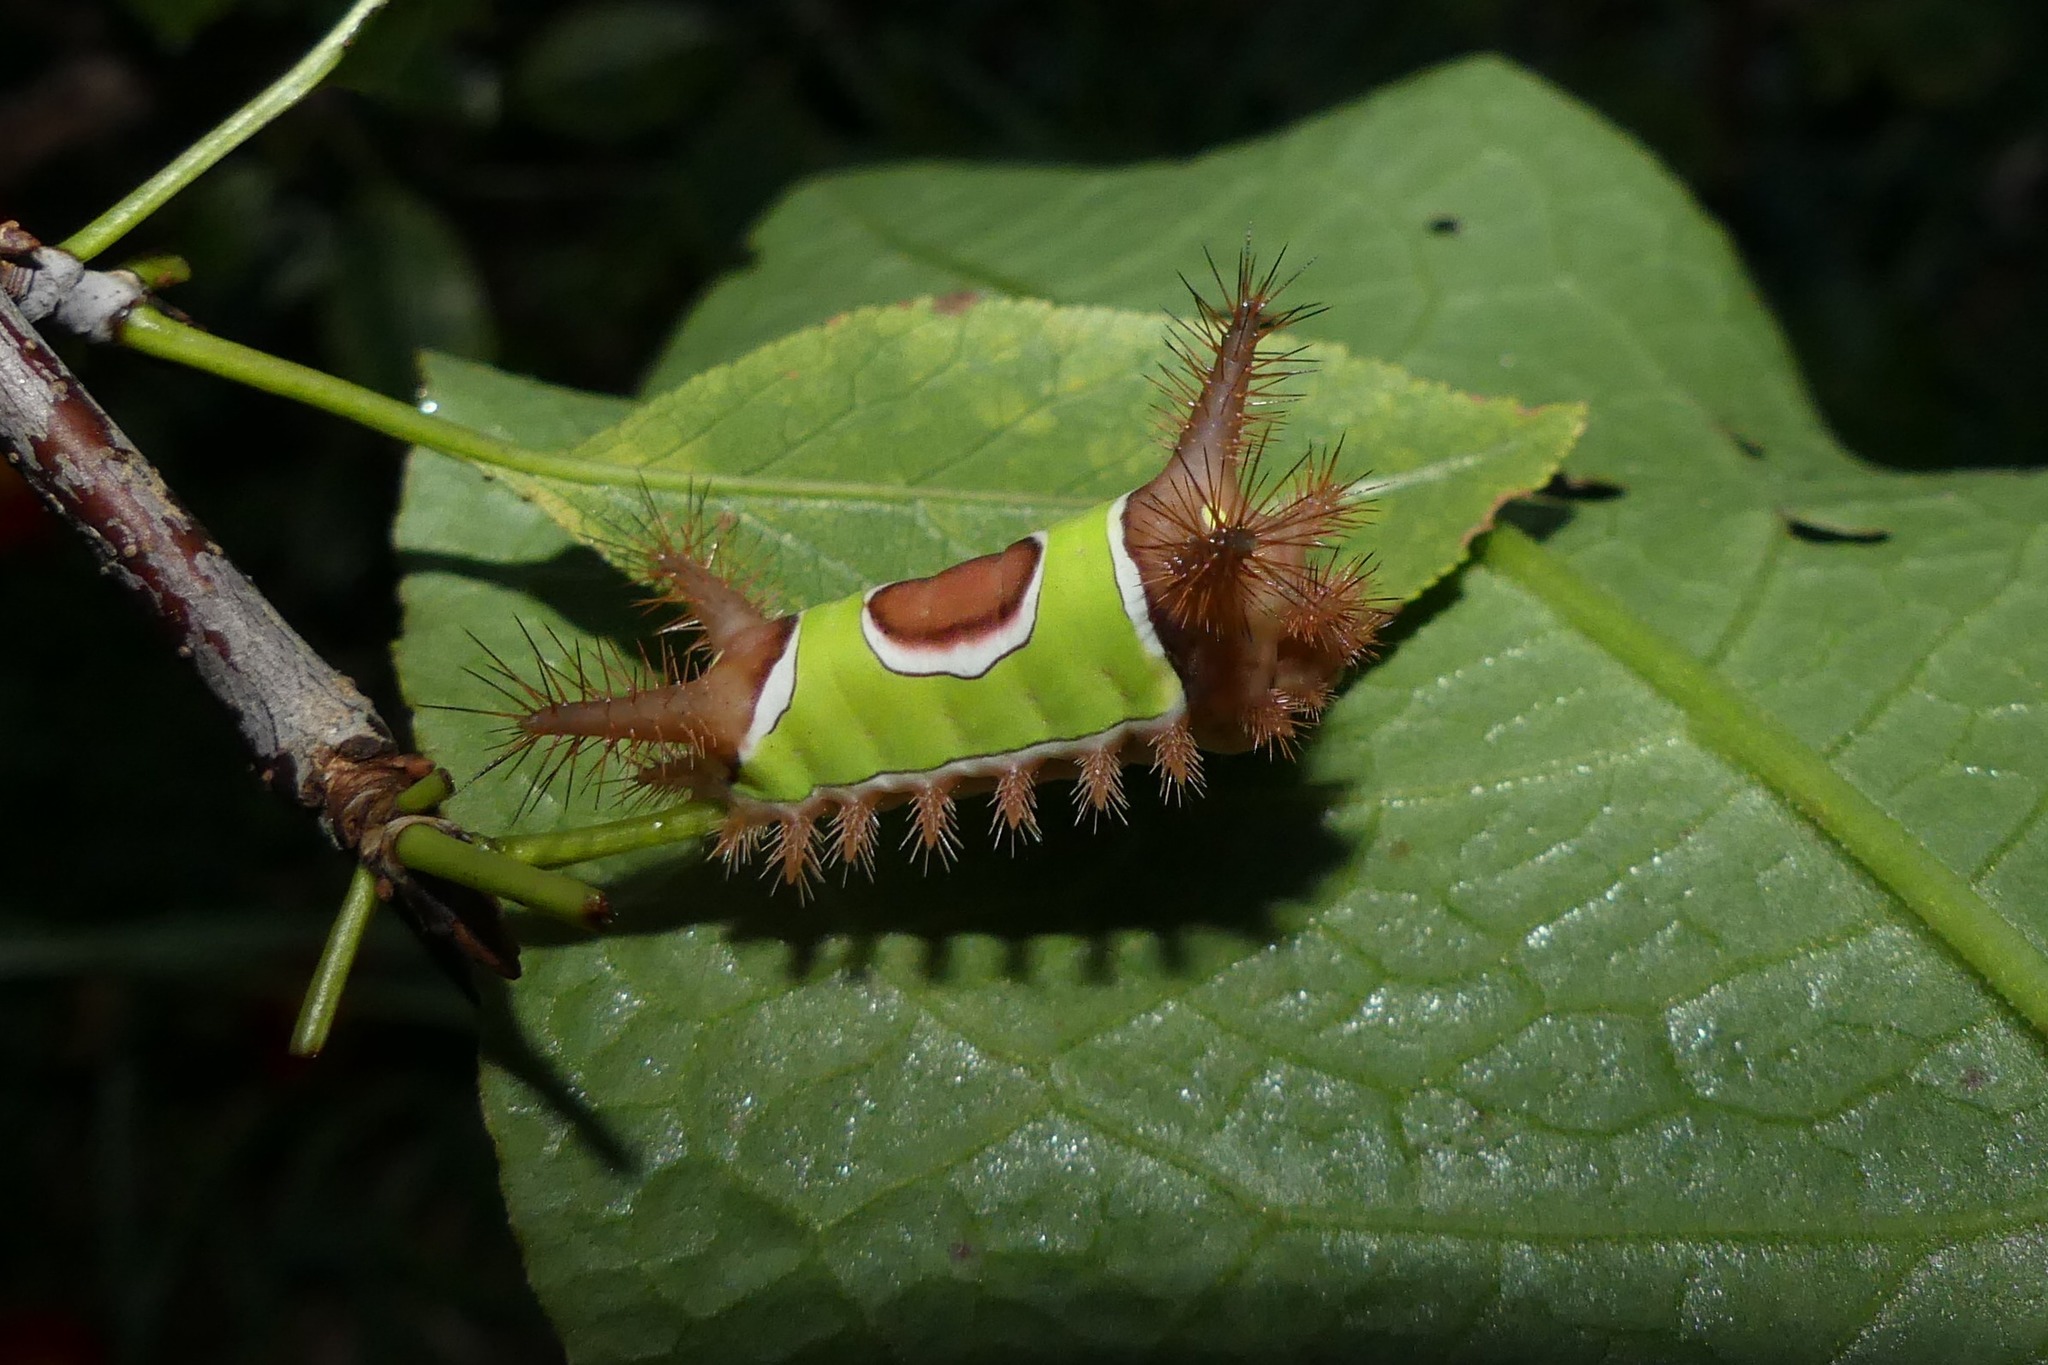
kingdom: Animalia
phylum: Arthropoda
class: Insecta
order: Lepidoptera
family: Limacodidae
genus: Acharia
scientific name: Acharia stimulea
